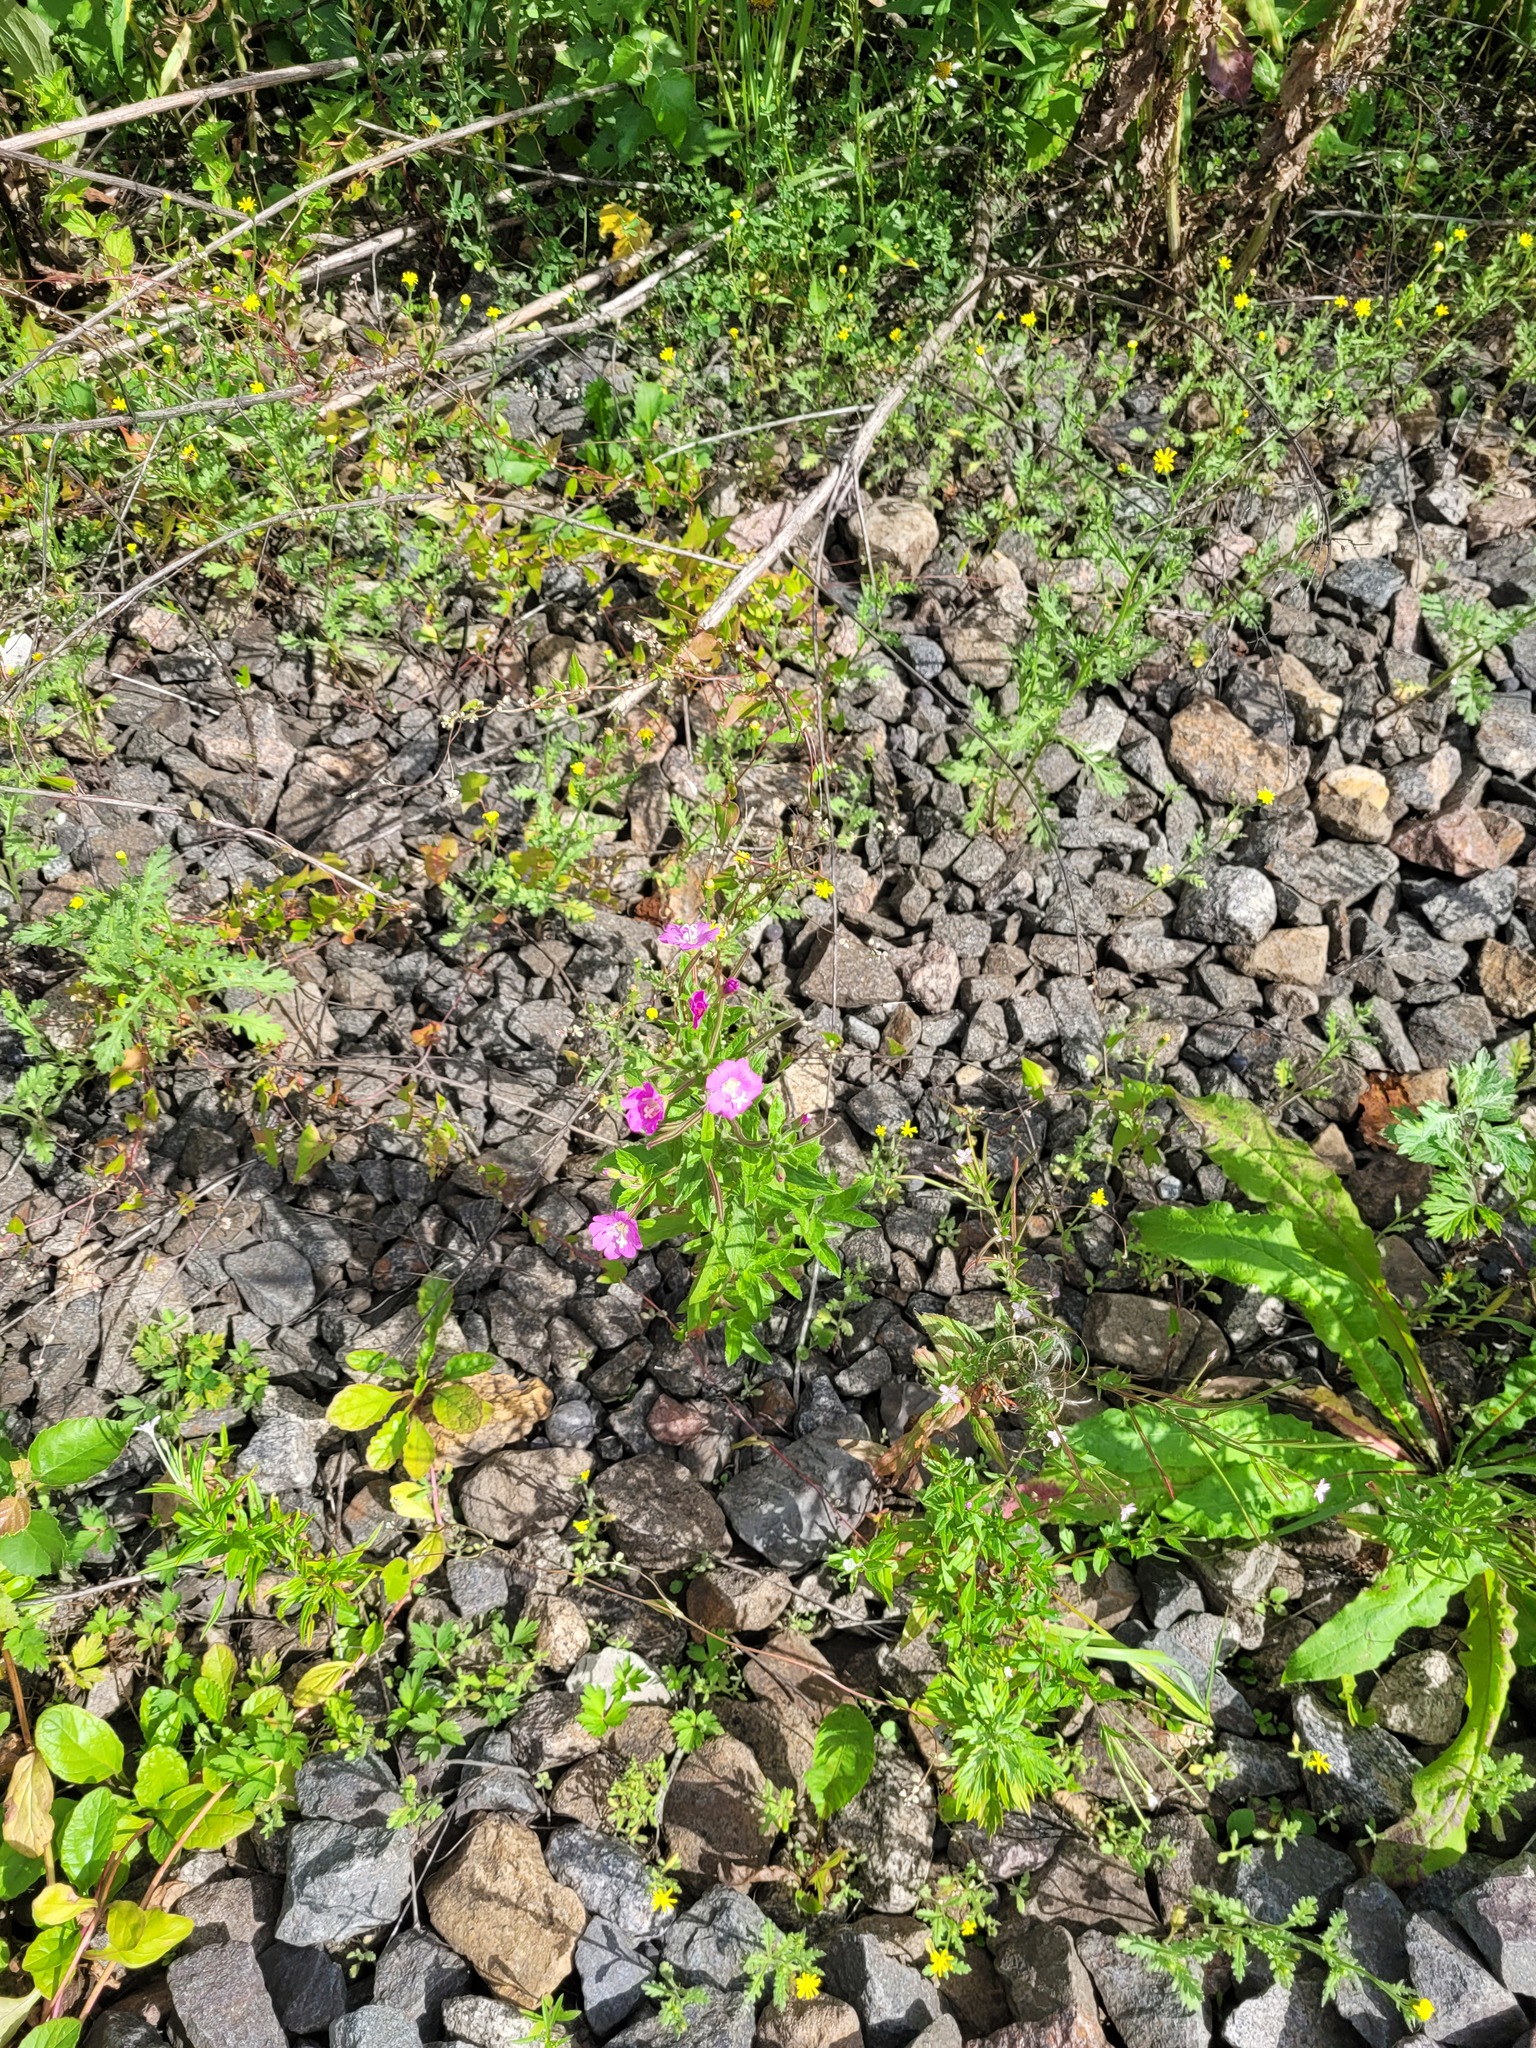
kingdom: Plantae
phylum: Tracheophyta
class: Magnoliopsida
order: Myrtales
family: Onagraceae
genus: Epilobium
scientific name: Epilobium hirsutum
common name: Great willowherb
